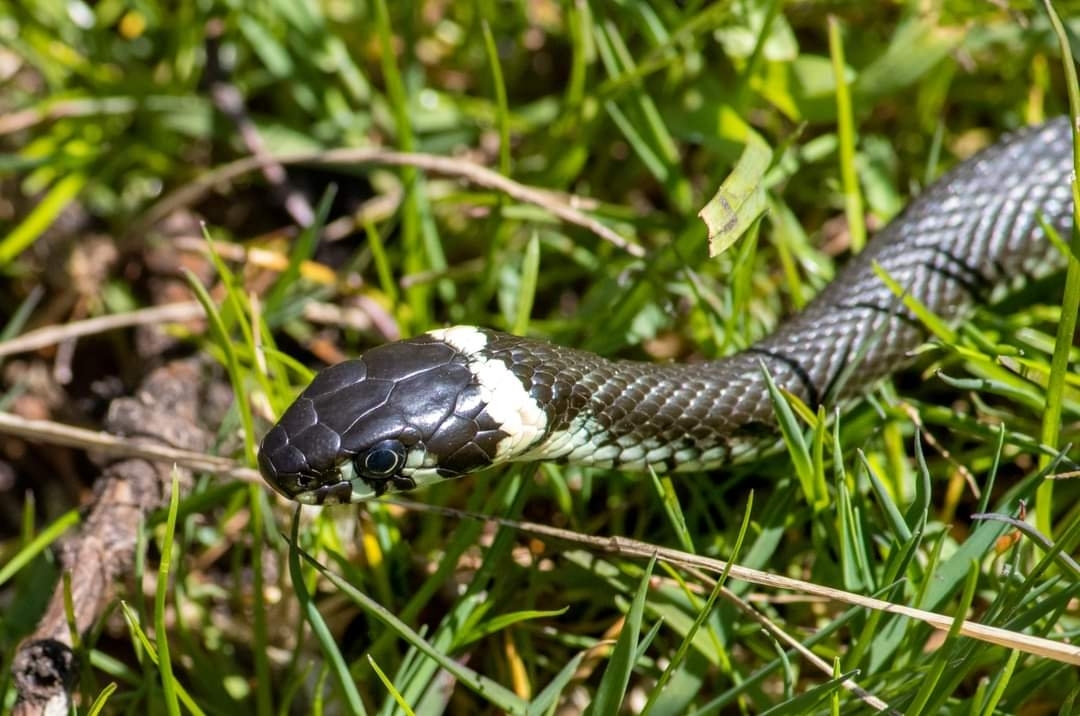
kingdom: Animalia
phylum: Chordata
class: Squamata
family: Colubridae
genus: Natrix
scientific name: Natrix natrix
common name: Grass snake
